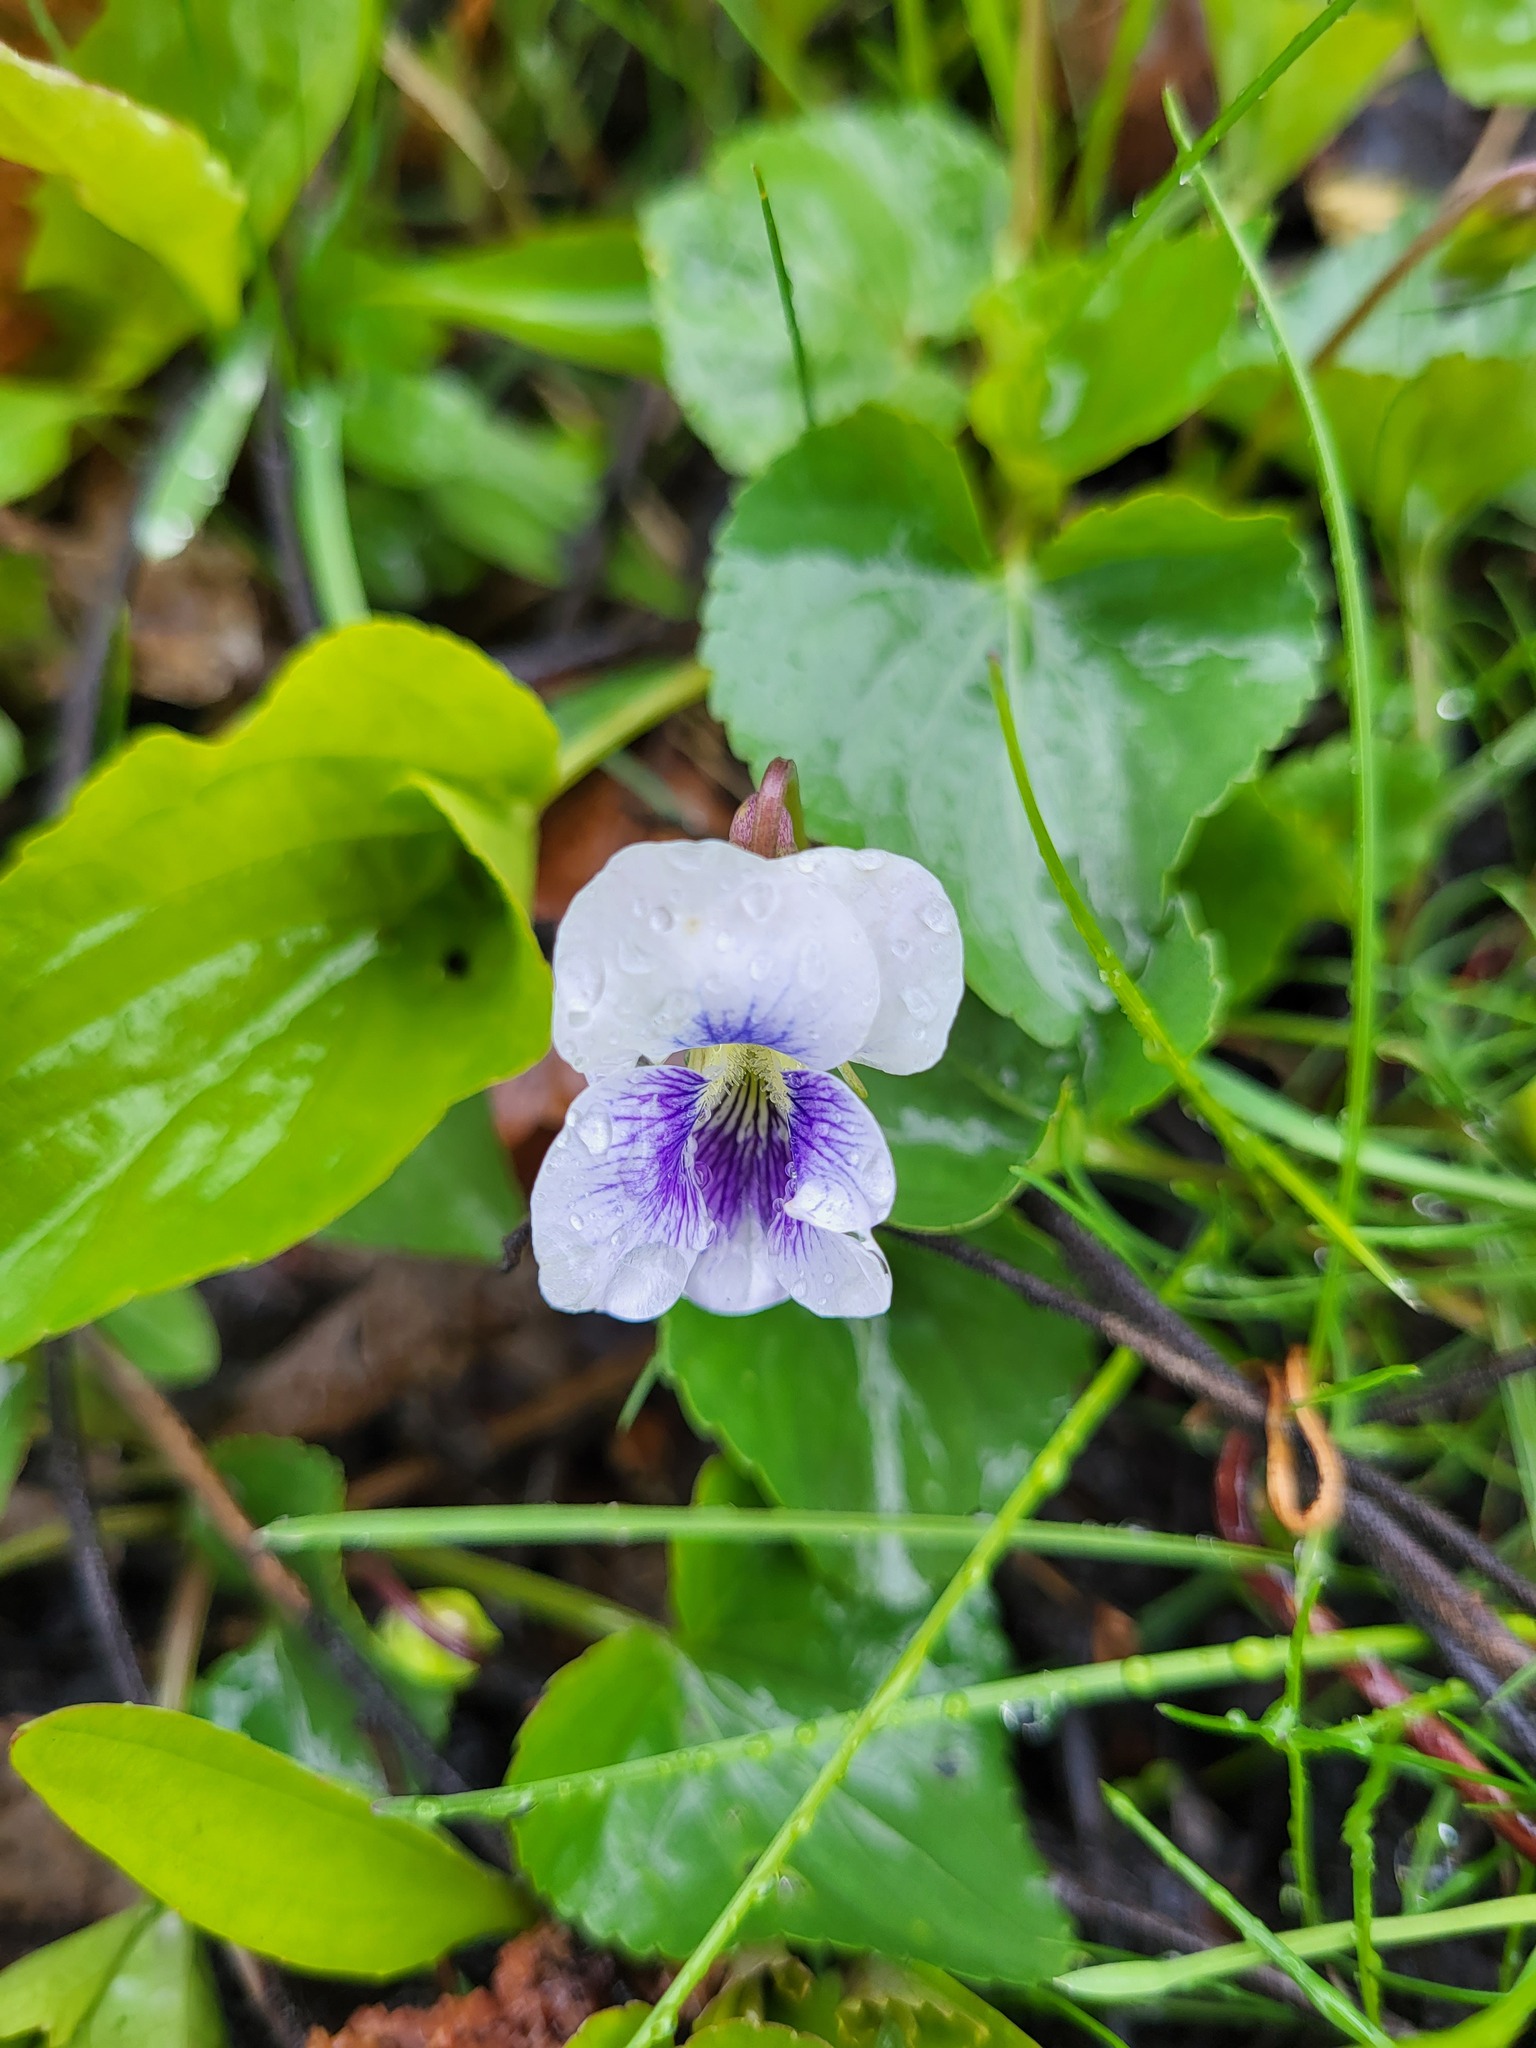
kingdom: Plantae
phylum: Tracheophyta
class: Magnoliopsida
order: Malpighiales
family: Violaceae
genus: Viola
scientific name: Viola sororia
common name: Dooryard violet
